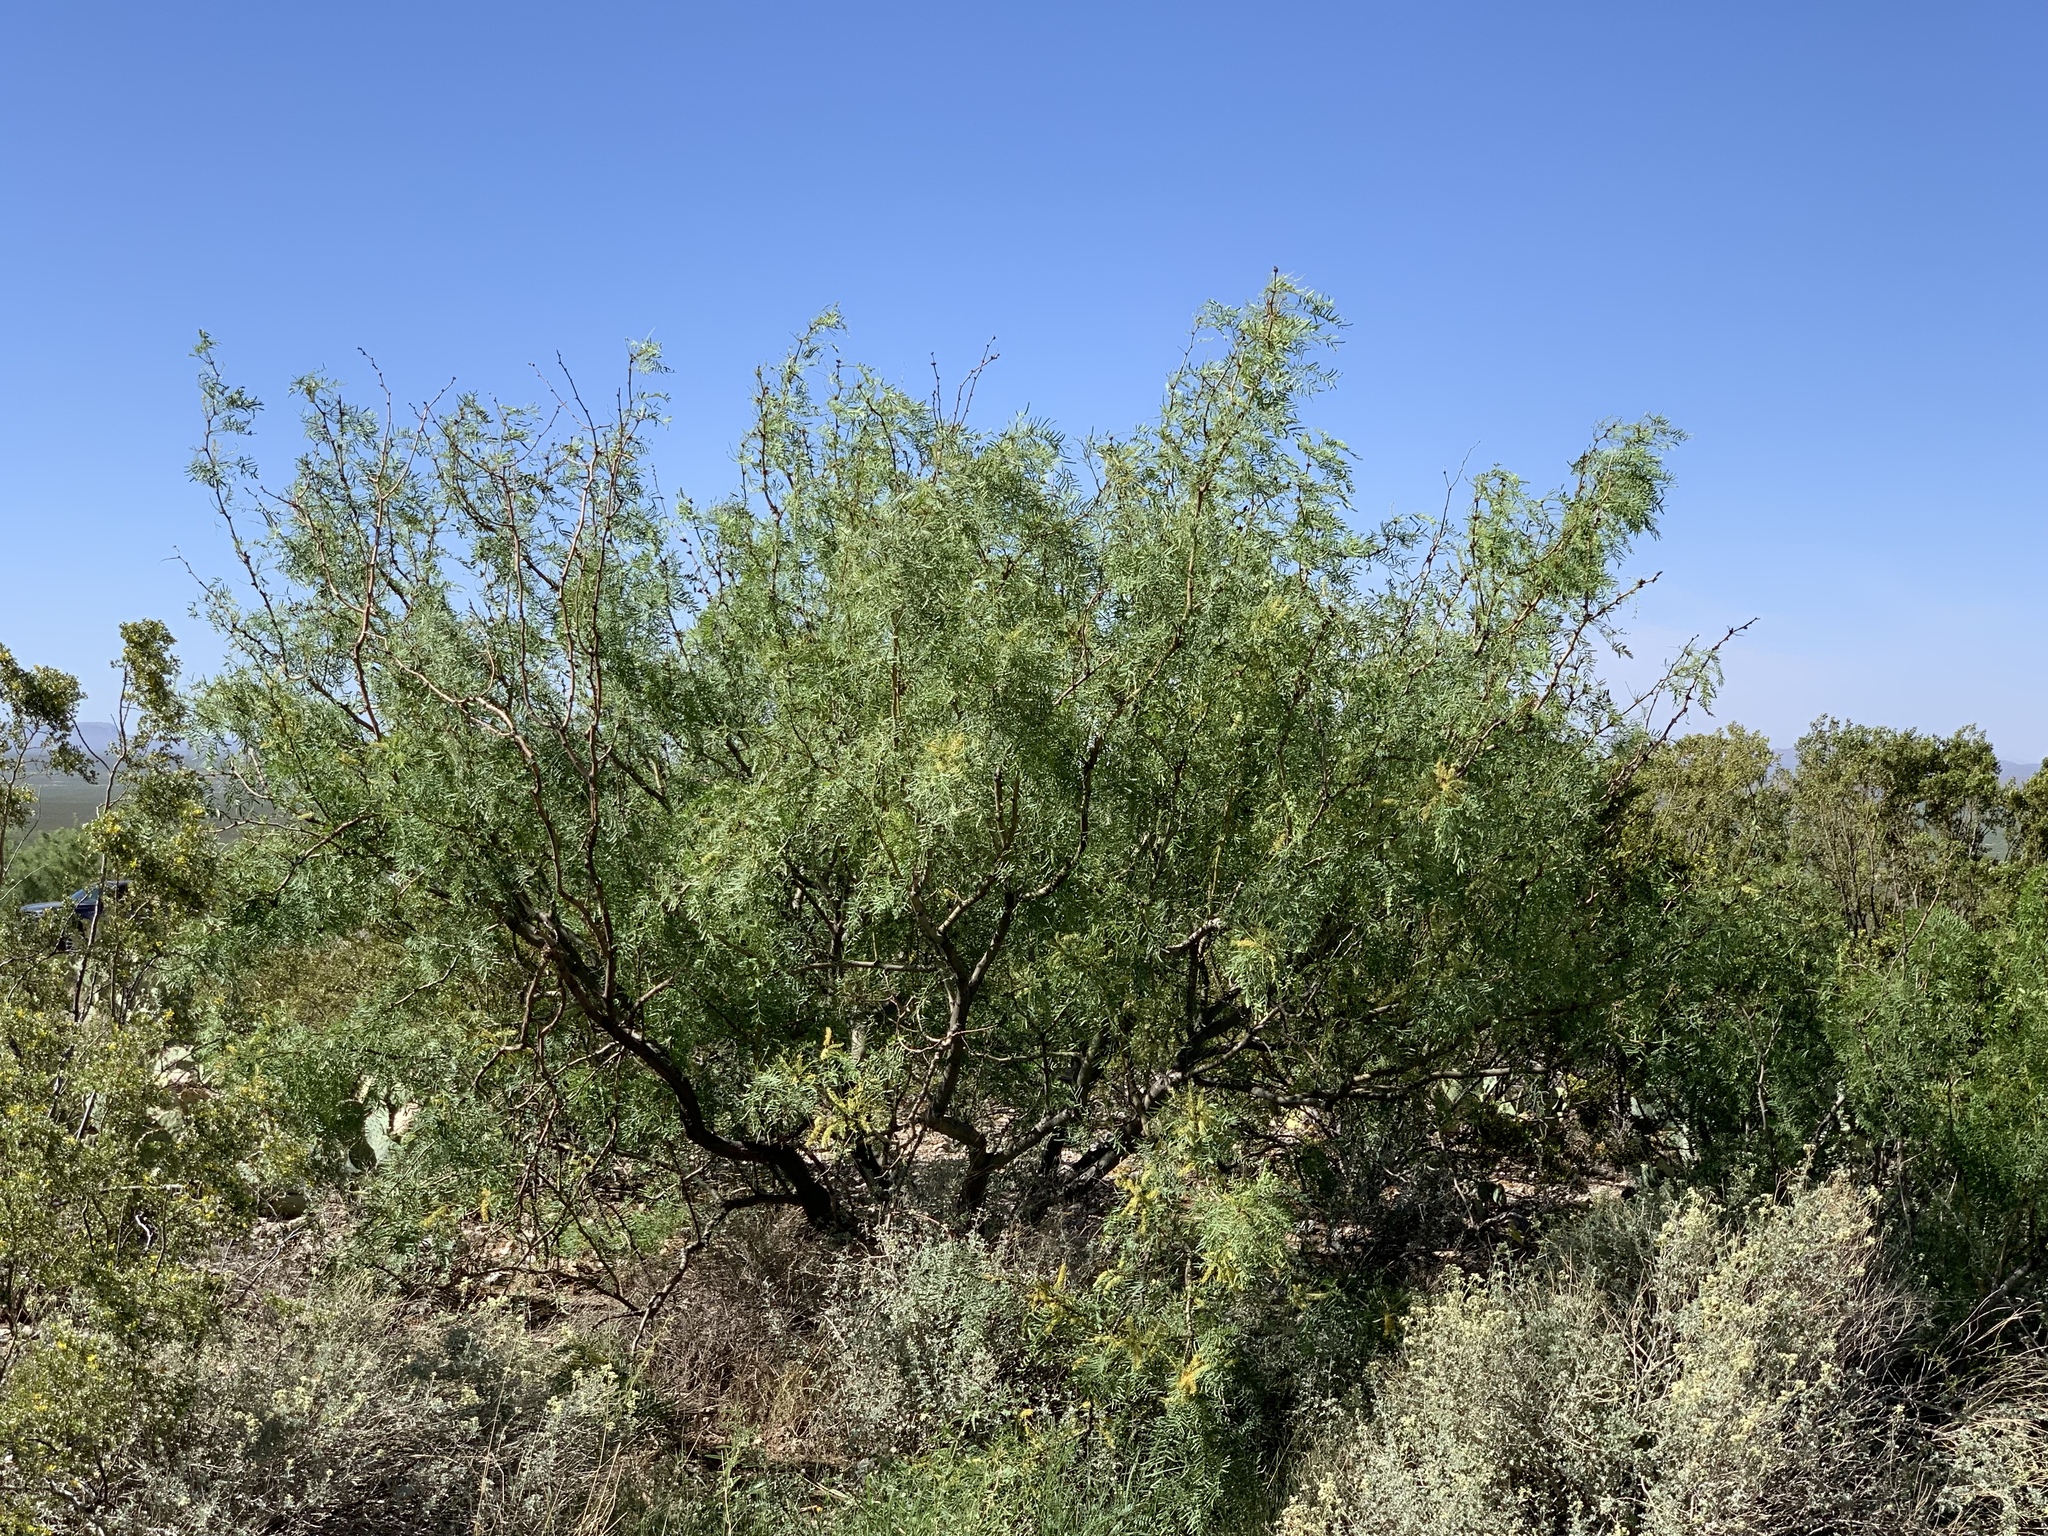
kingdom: Plantae
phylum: Tracheophyta
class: Magnoliopsida
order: Fabales
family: Fabaceae
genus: Prosopis
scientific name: Prosopis glandulosa
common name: Honey mesquite
